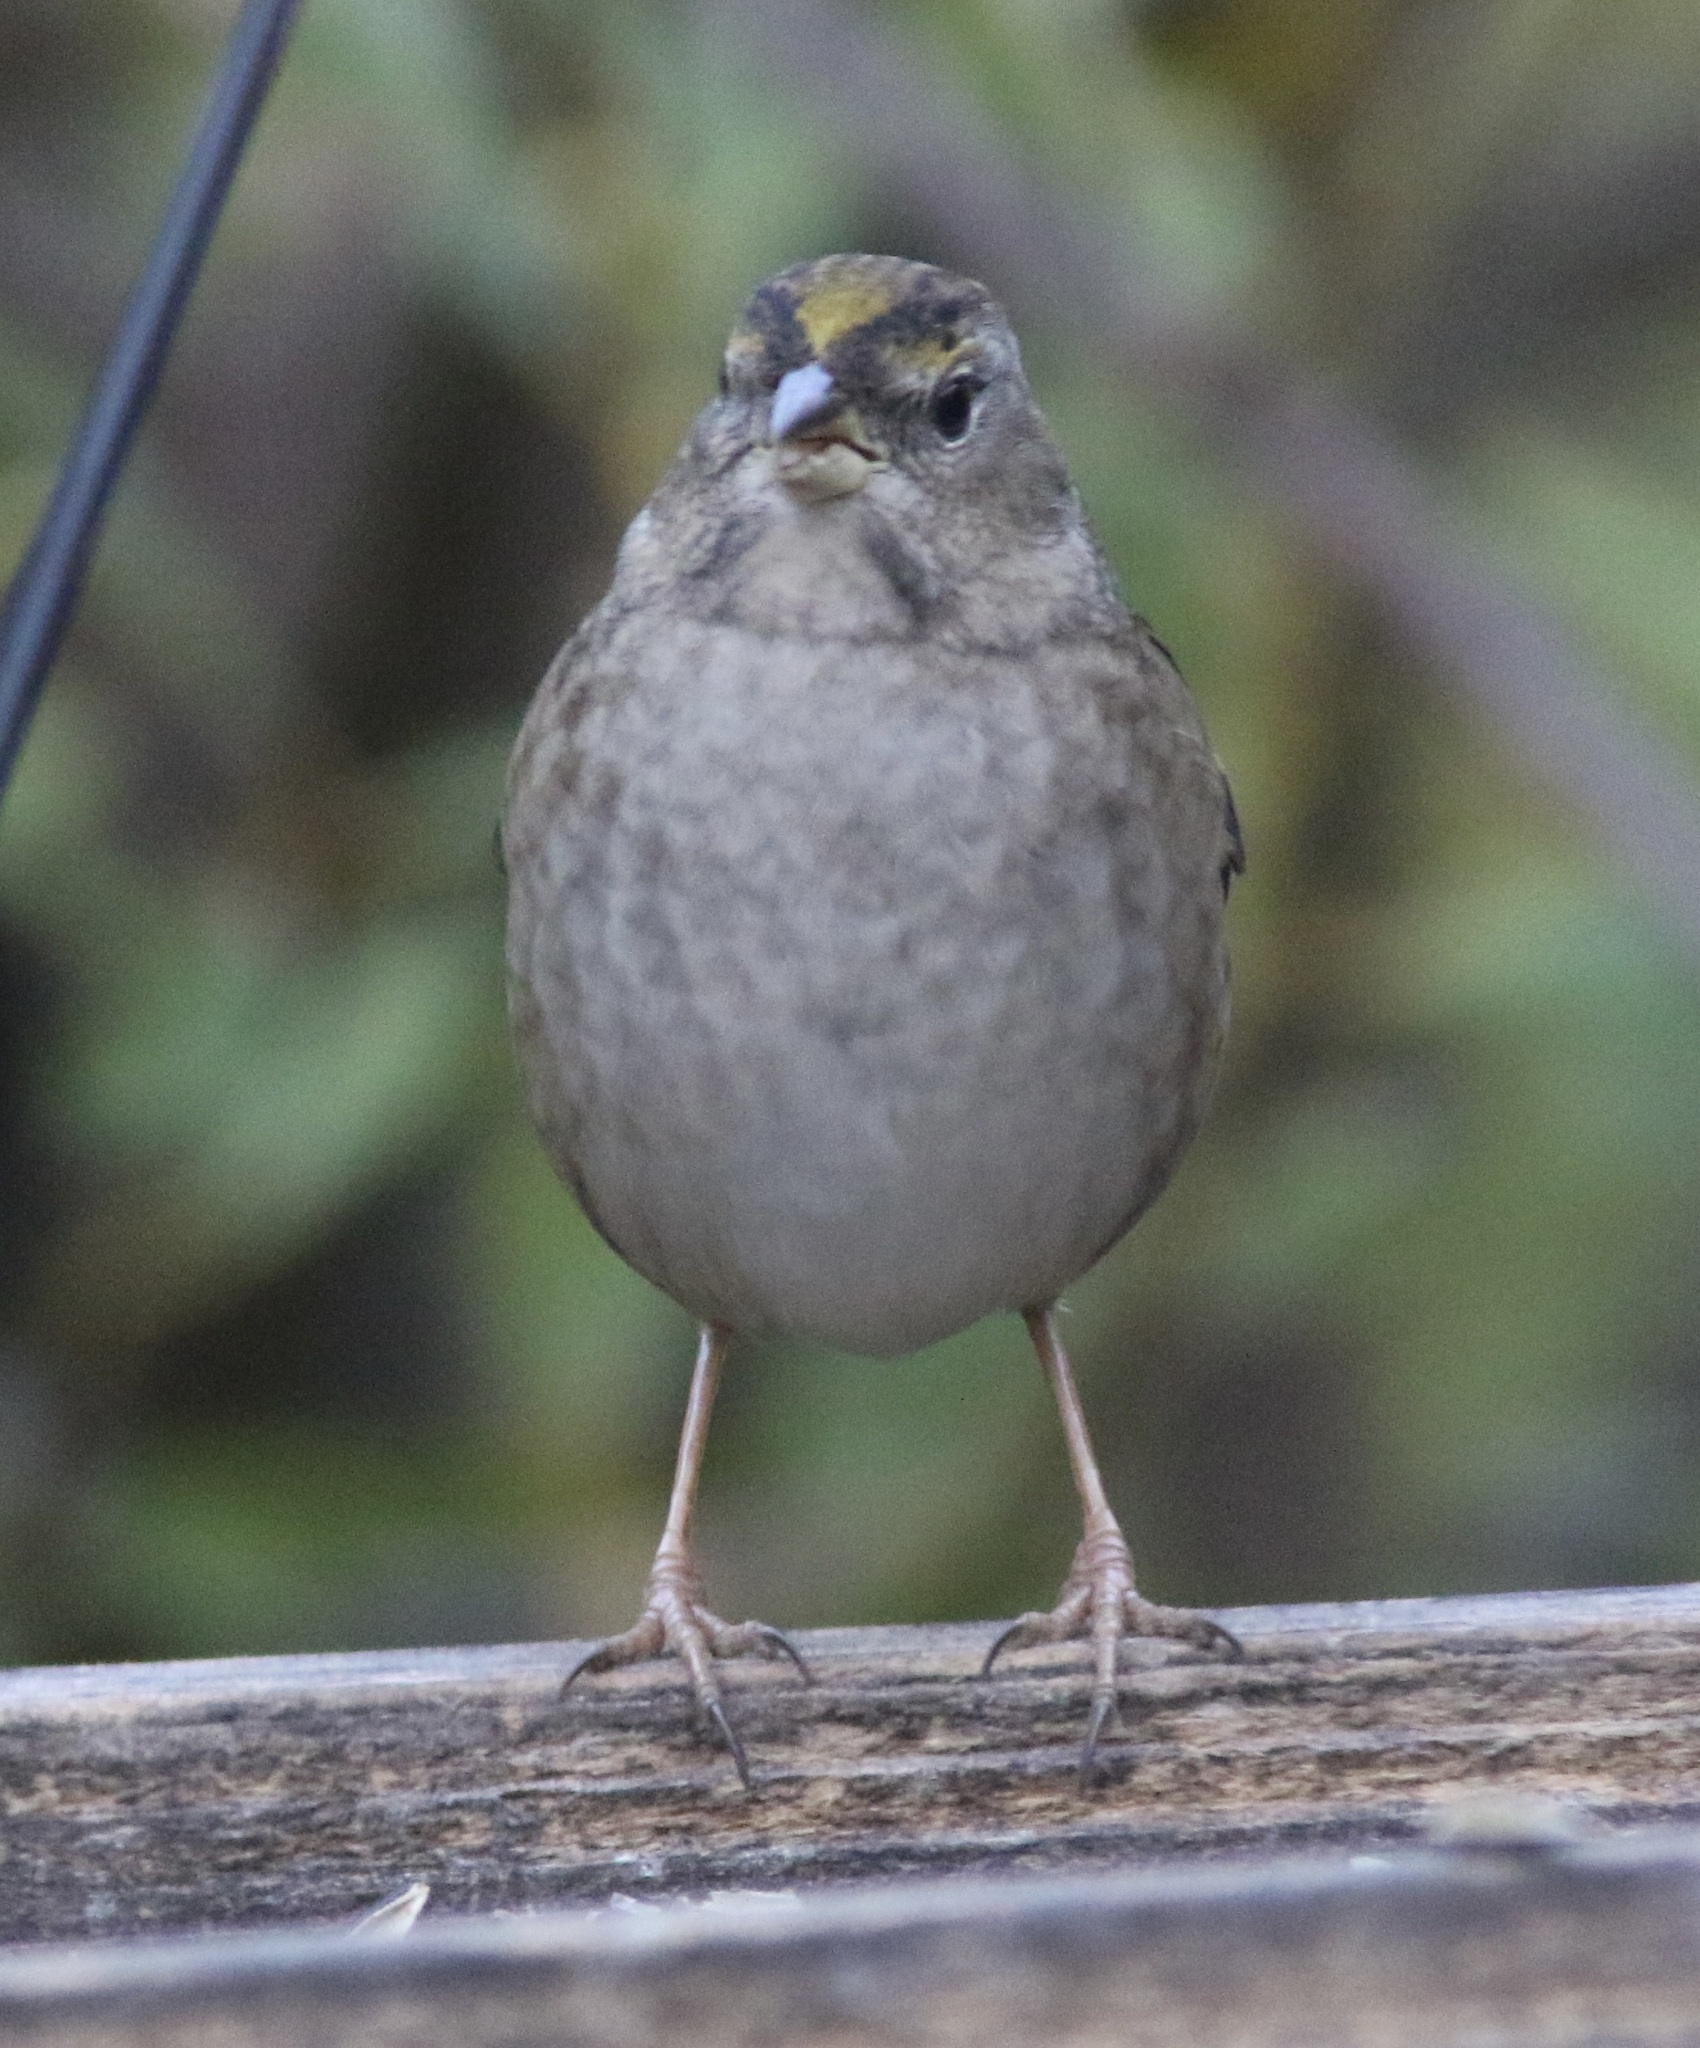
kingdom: Animalia
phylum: Chordata
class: Aves
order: Passeriformes
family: Passerellidae
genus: Zonotrichia
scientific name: Zonotrichia atricapilla
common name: Golden-crowned sparrow
